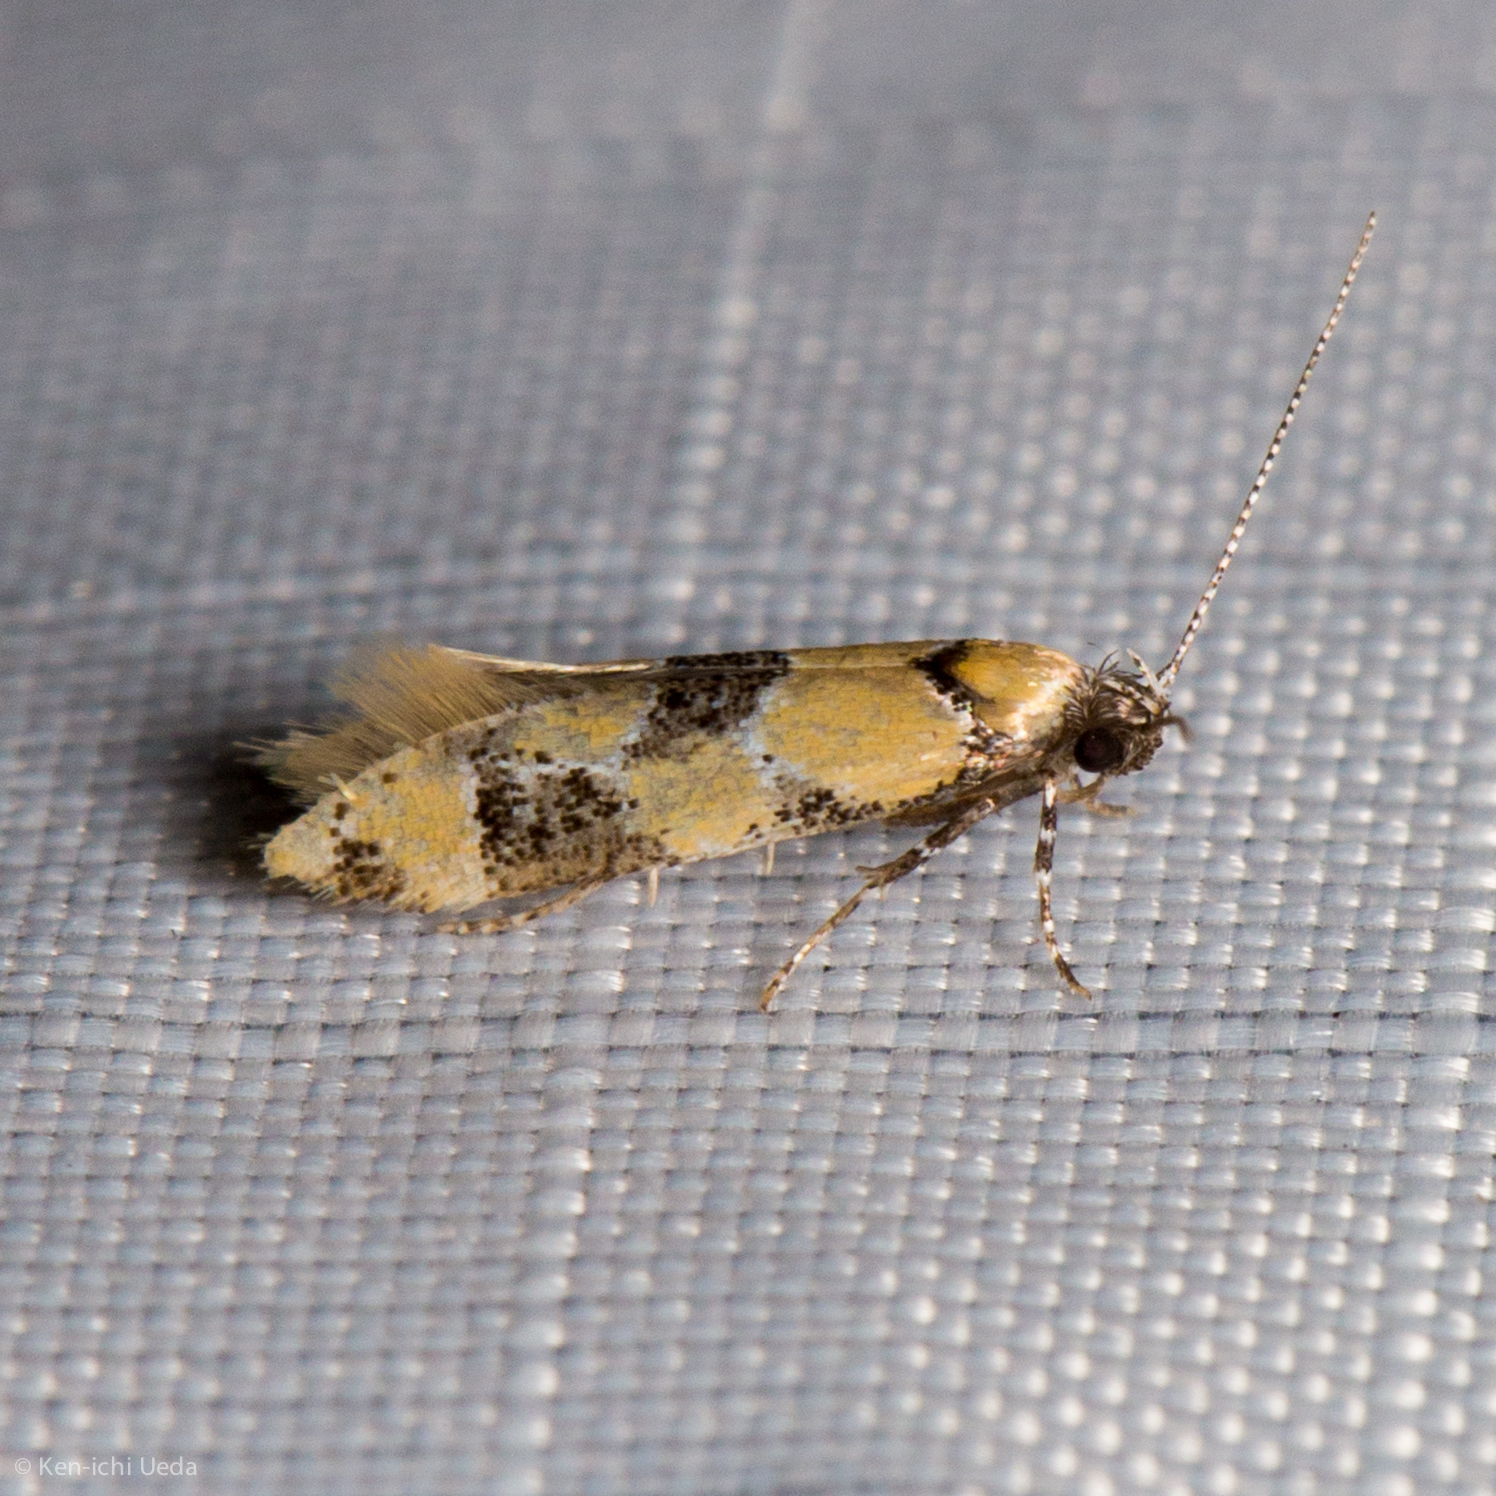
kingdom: Animalia
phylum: Arthropoda
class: Insecta
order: Lepidoptera
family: Oecophoridae
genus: Decantha
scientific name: Decantha stonda
